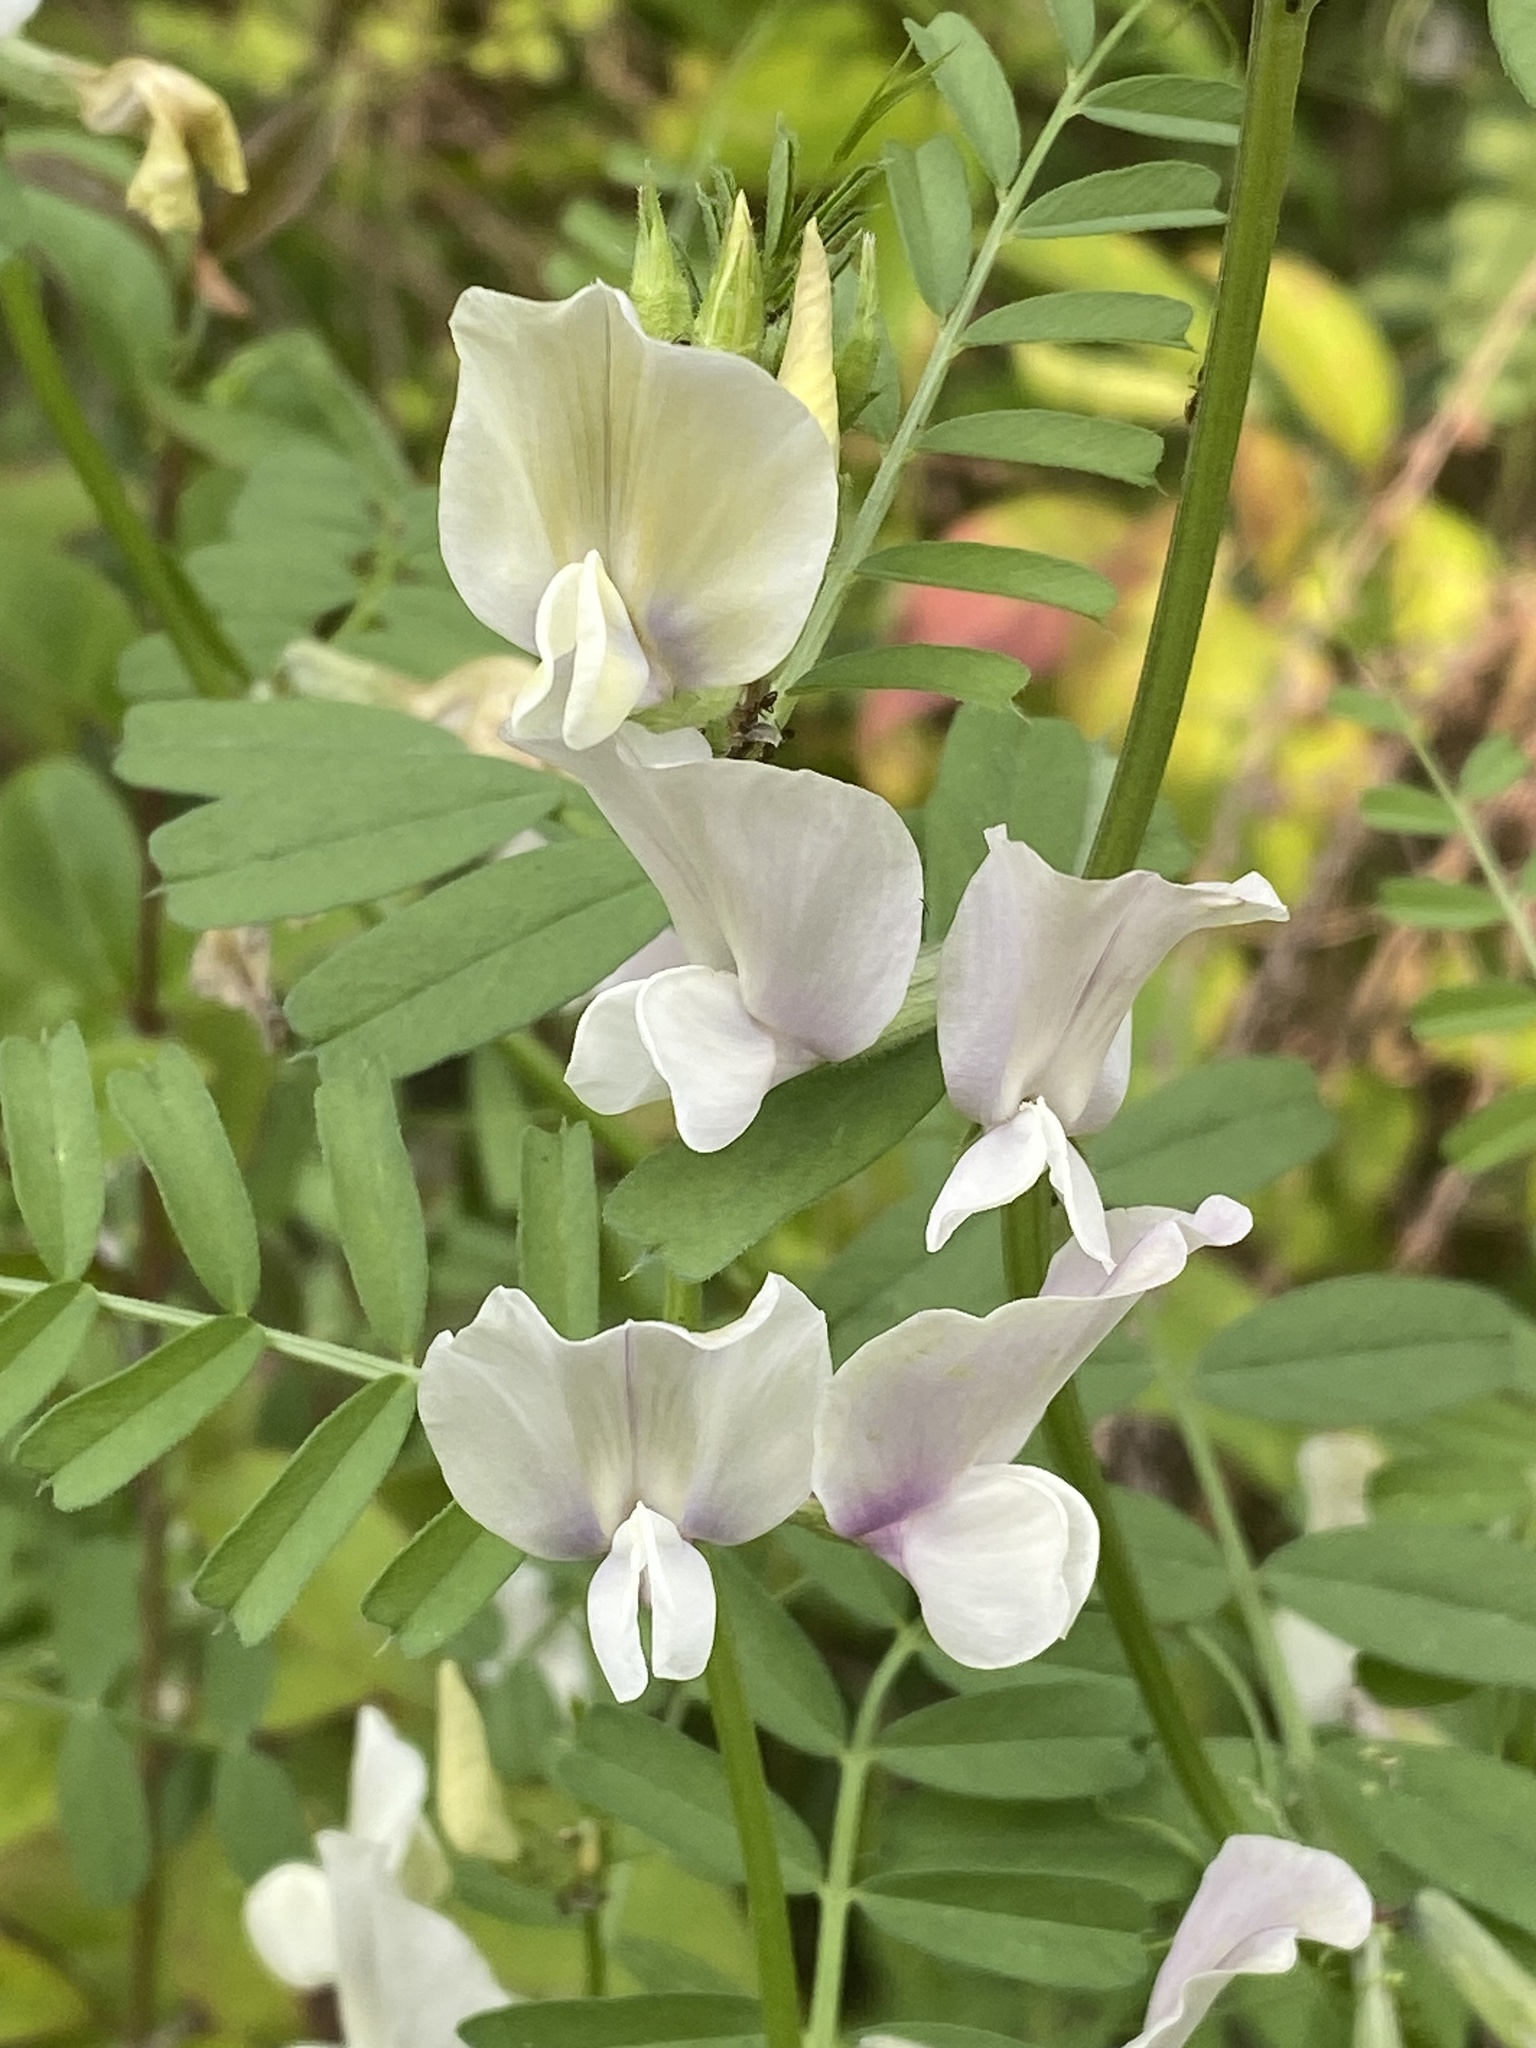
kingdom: Plantae
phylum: Tracheophyta
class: Magnoliopsida
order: Fabales
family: Fabaceae
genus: Vicia
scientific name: Vicia grandiflora
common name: Large yellow vetch
